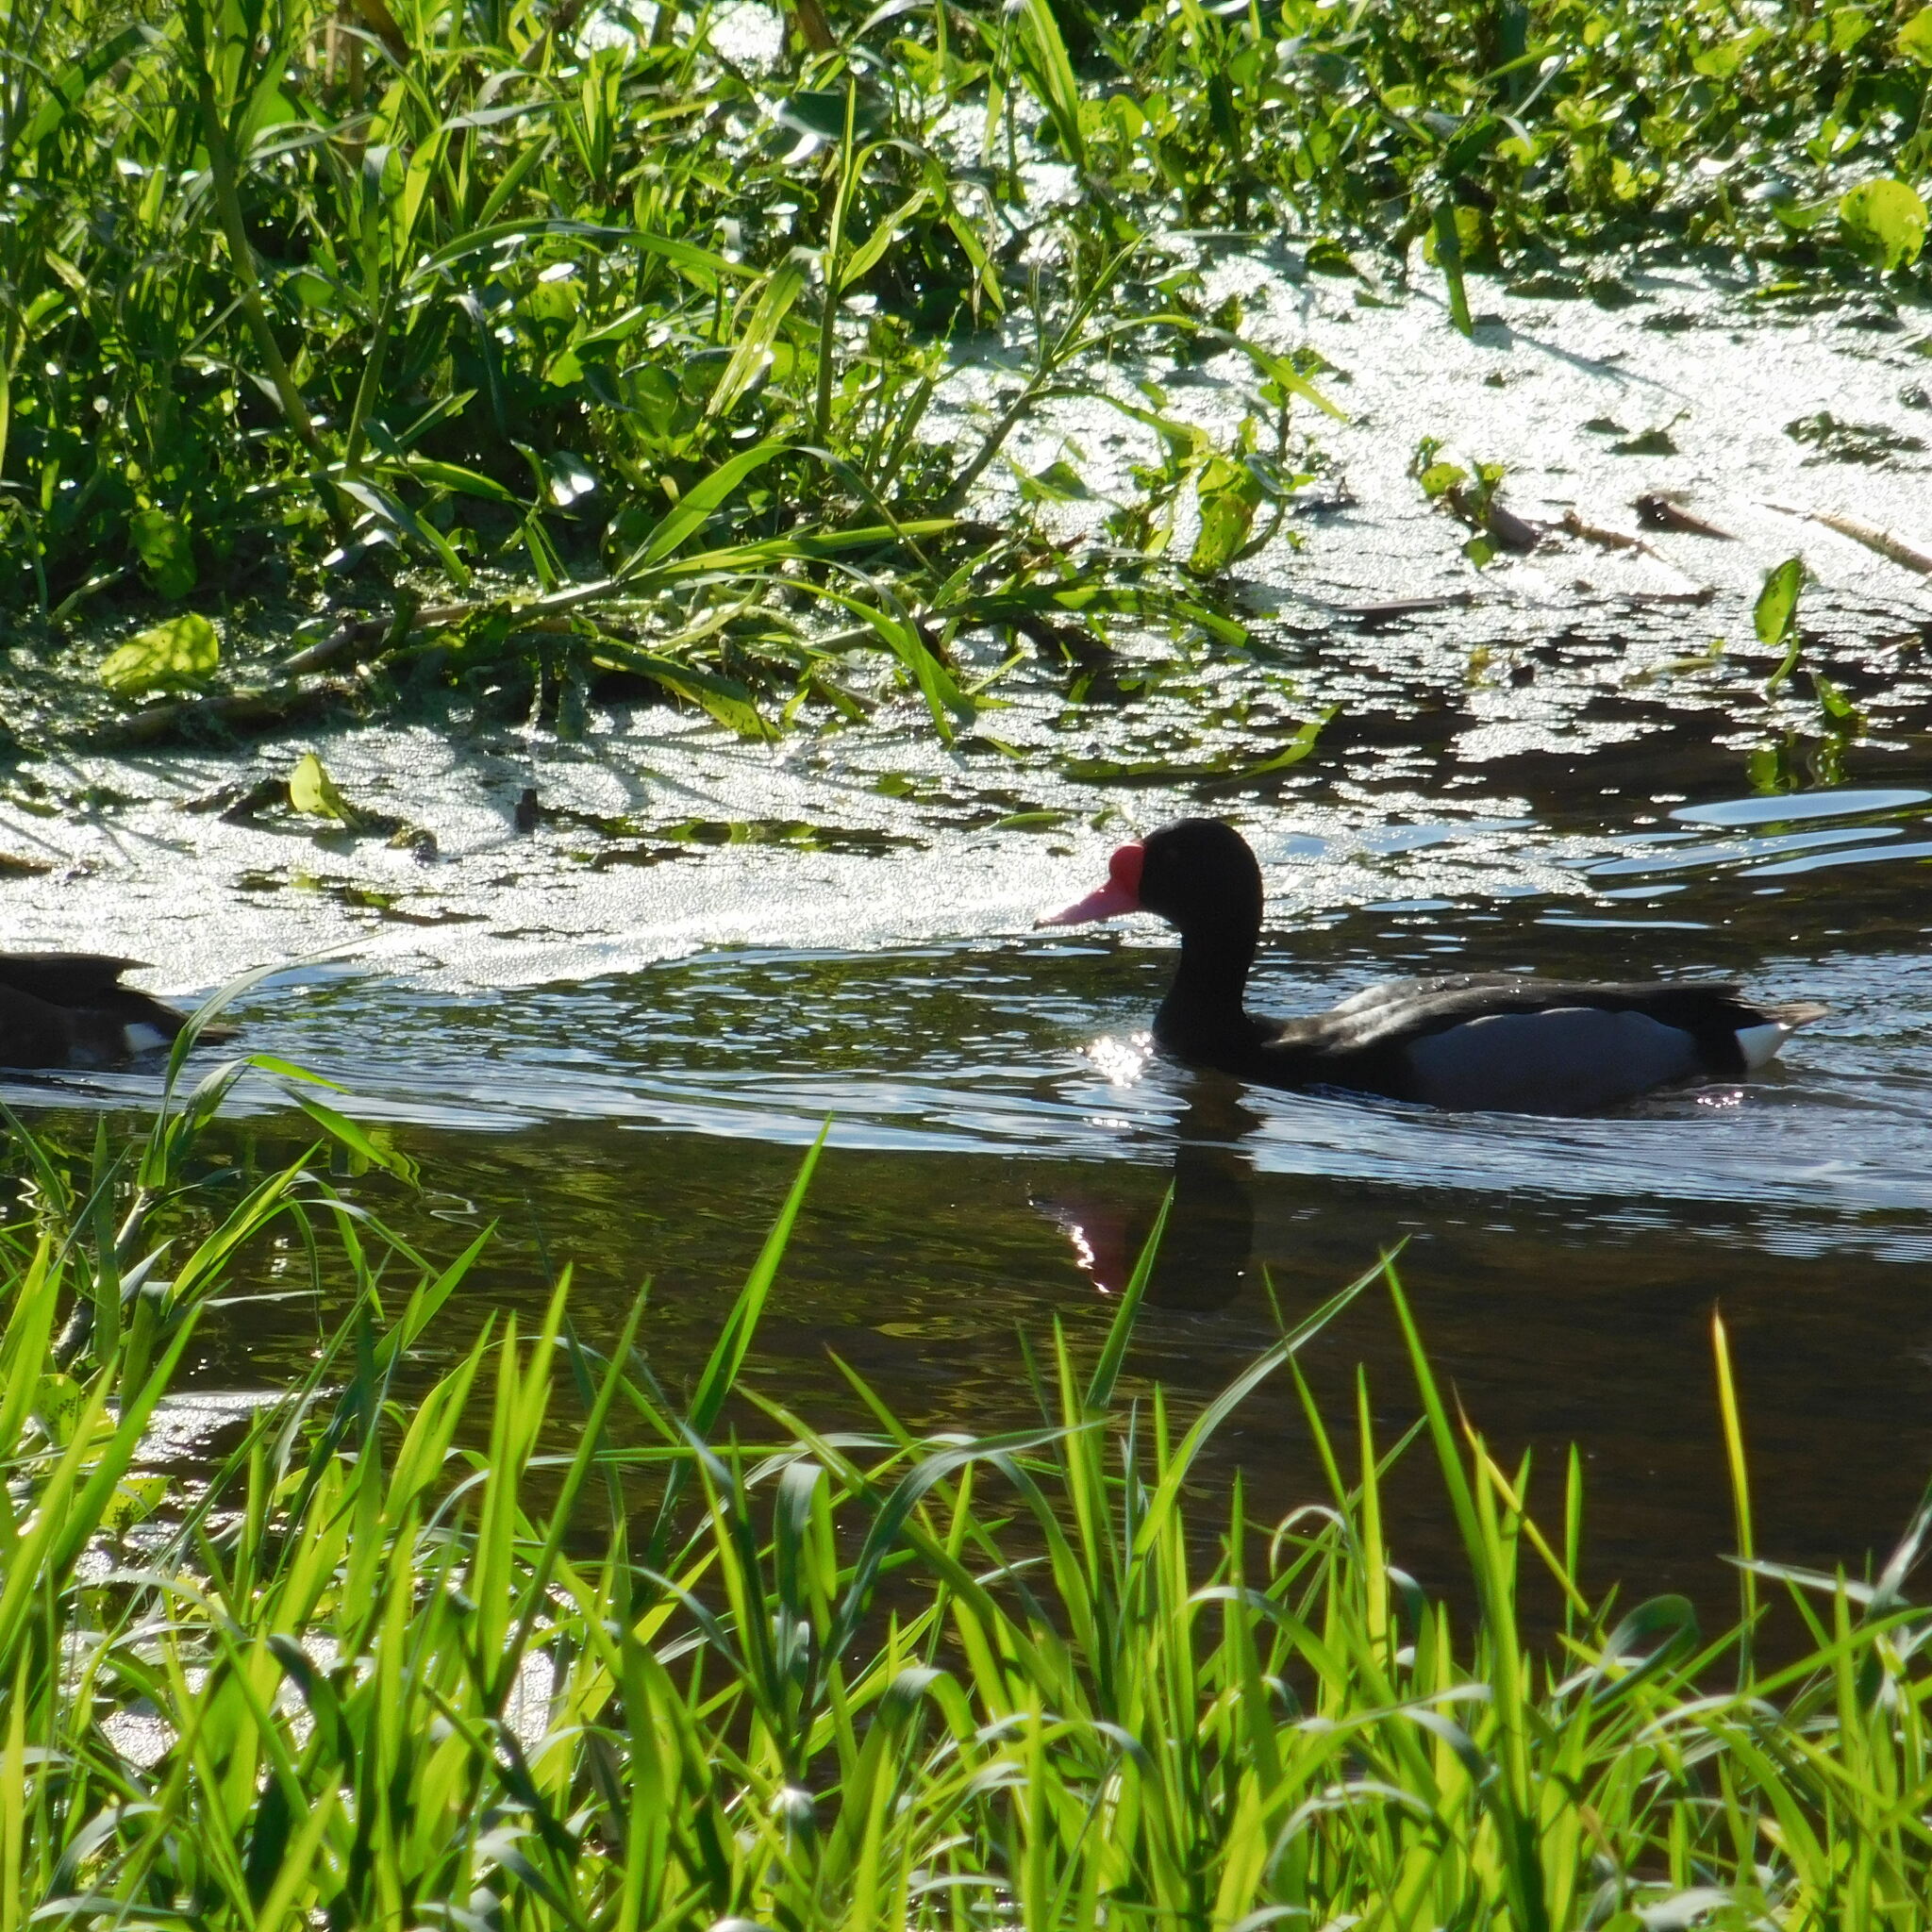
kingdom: Animalia
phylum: Chordata
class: Aves
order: Anseriformes
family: Anatidae
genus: Netta
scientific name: Netta peposaca
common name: Rosy-billed pochard
